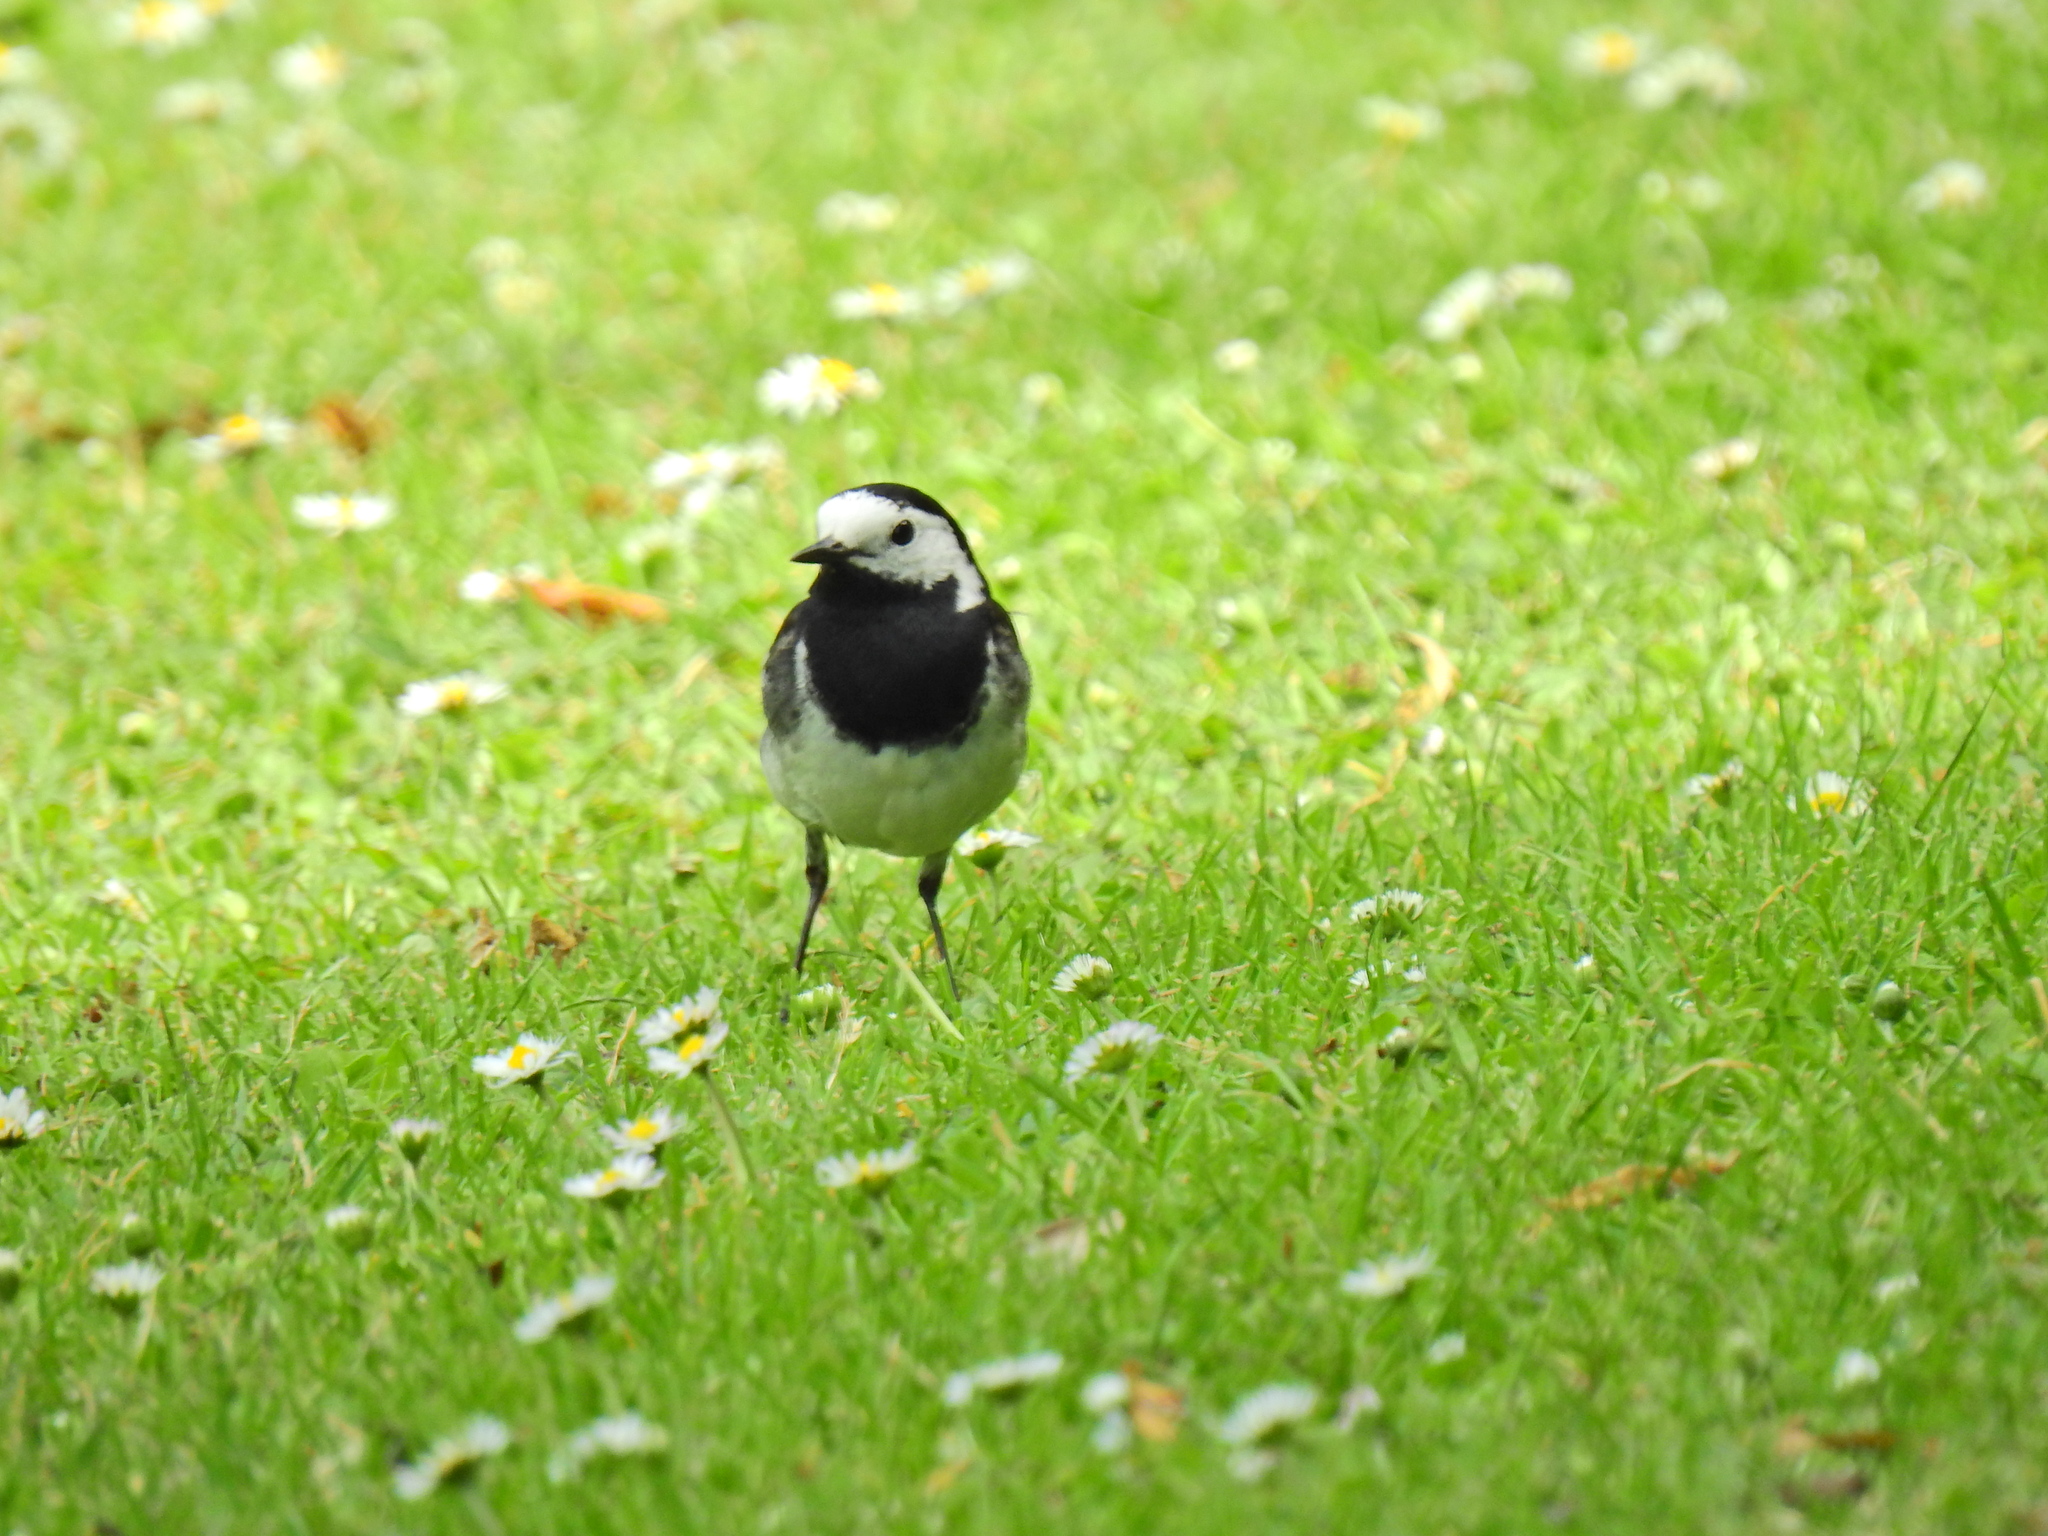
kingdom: Animalia
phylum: Chordata
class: Aves
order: Passeriformes
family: Motacillidae
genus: Motacilla
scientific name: Motacilla alba
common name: White wagtail
